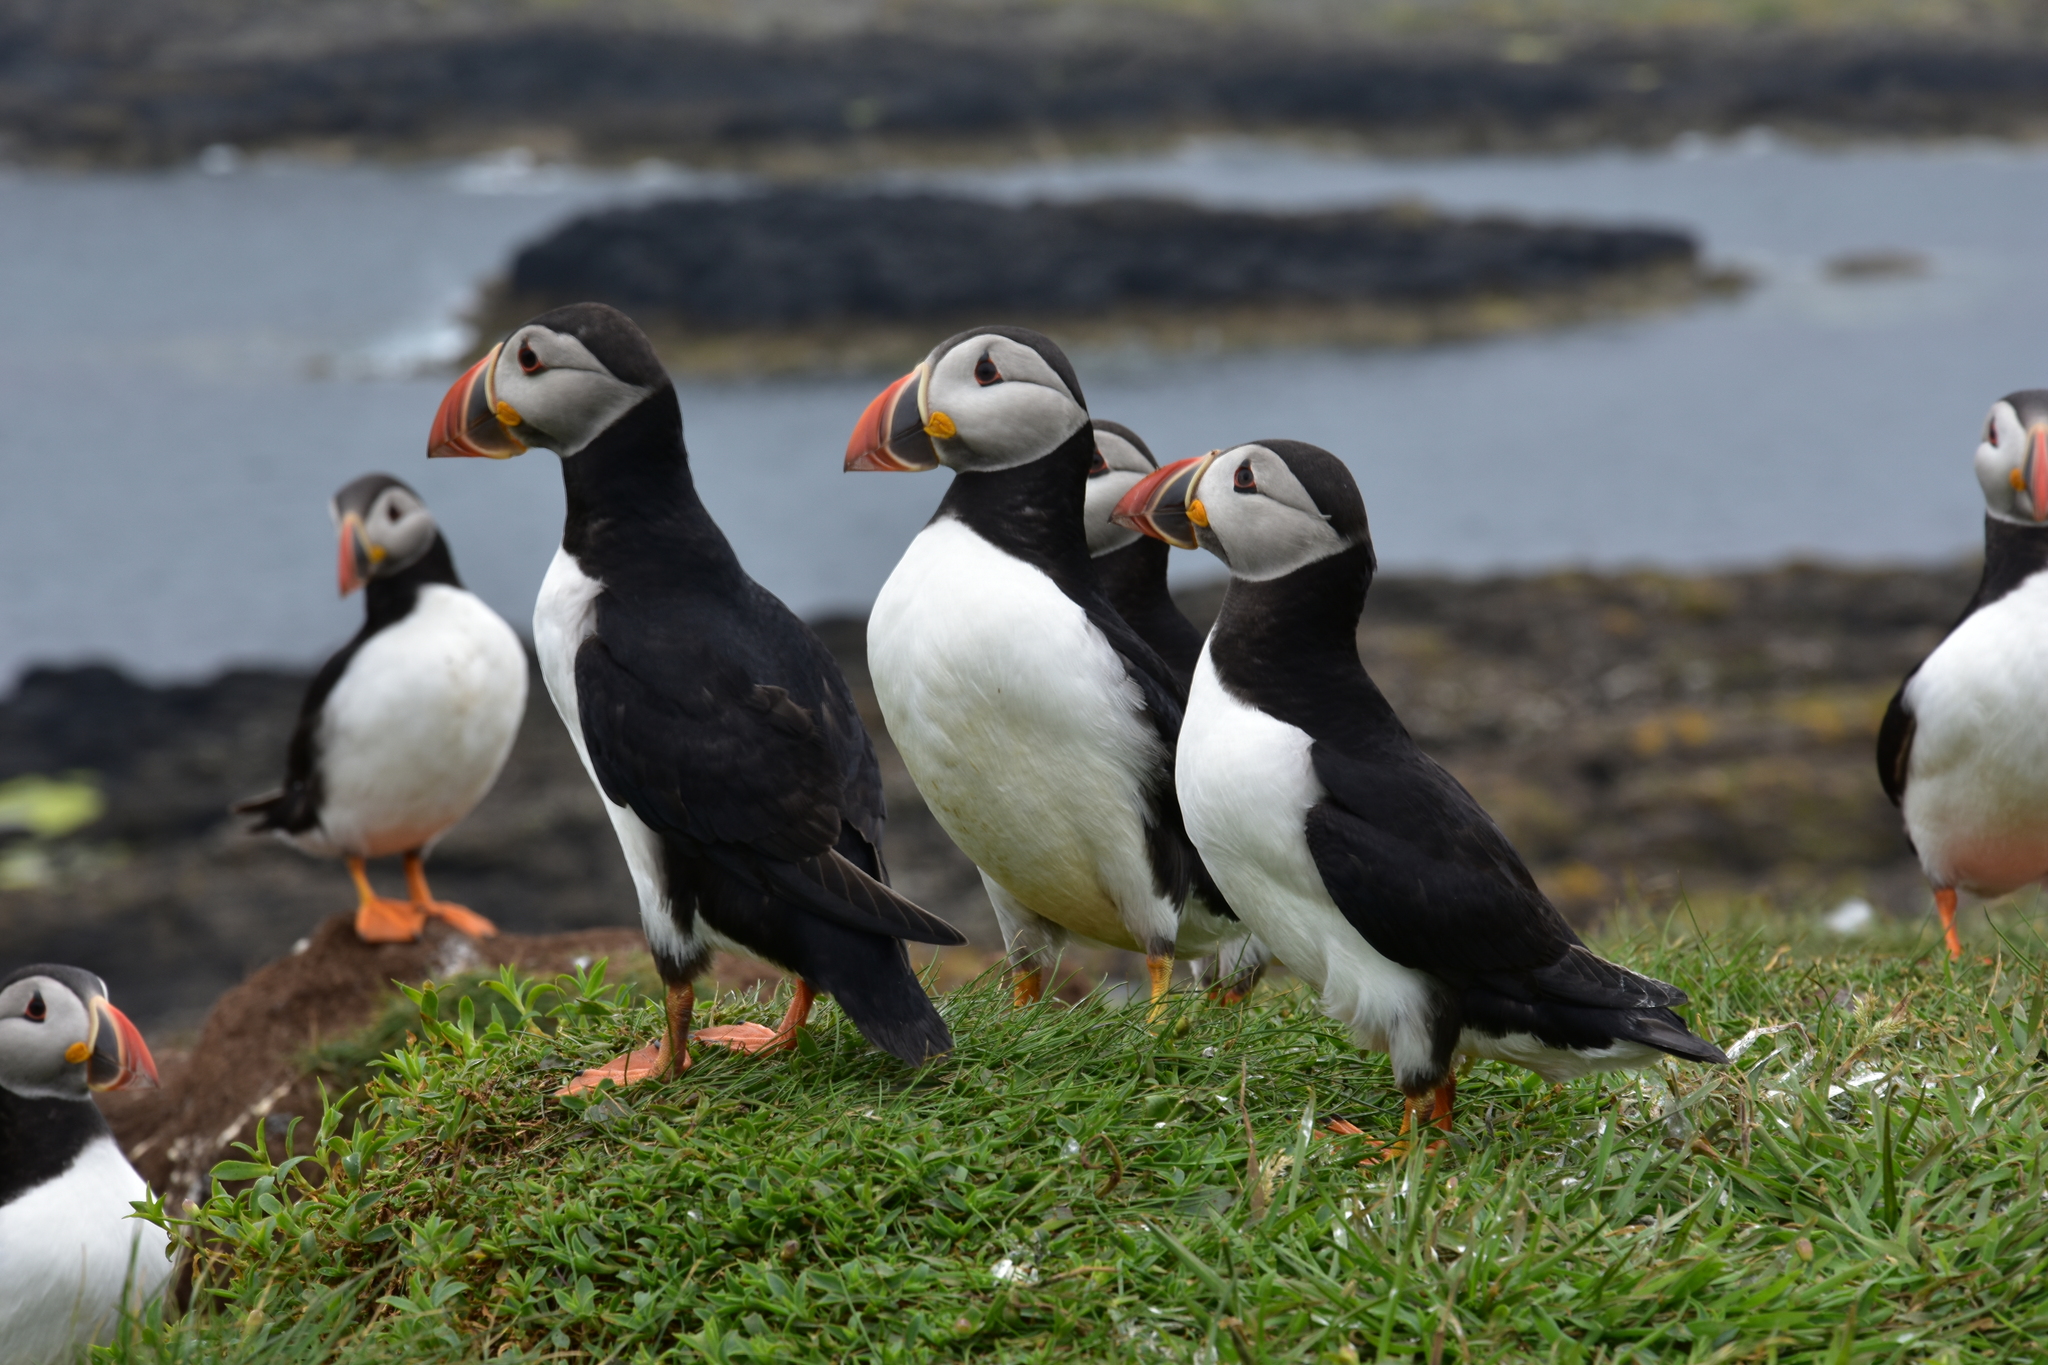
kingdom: Animalia
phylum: Chordata
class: Aves
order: Charadriiformes
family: Alcidae
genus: Fratercula
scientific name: Fratercula arctica
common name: Atlantic puffin
